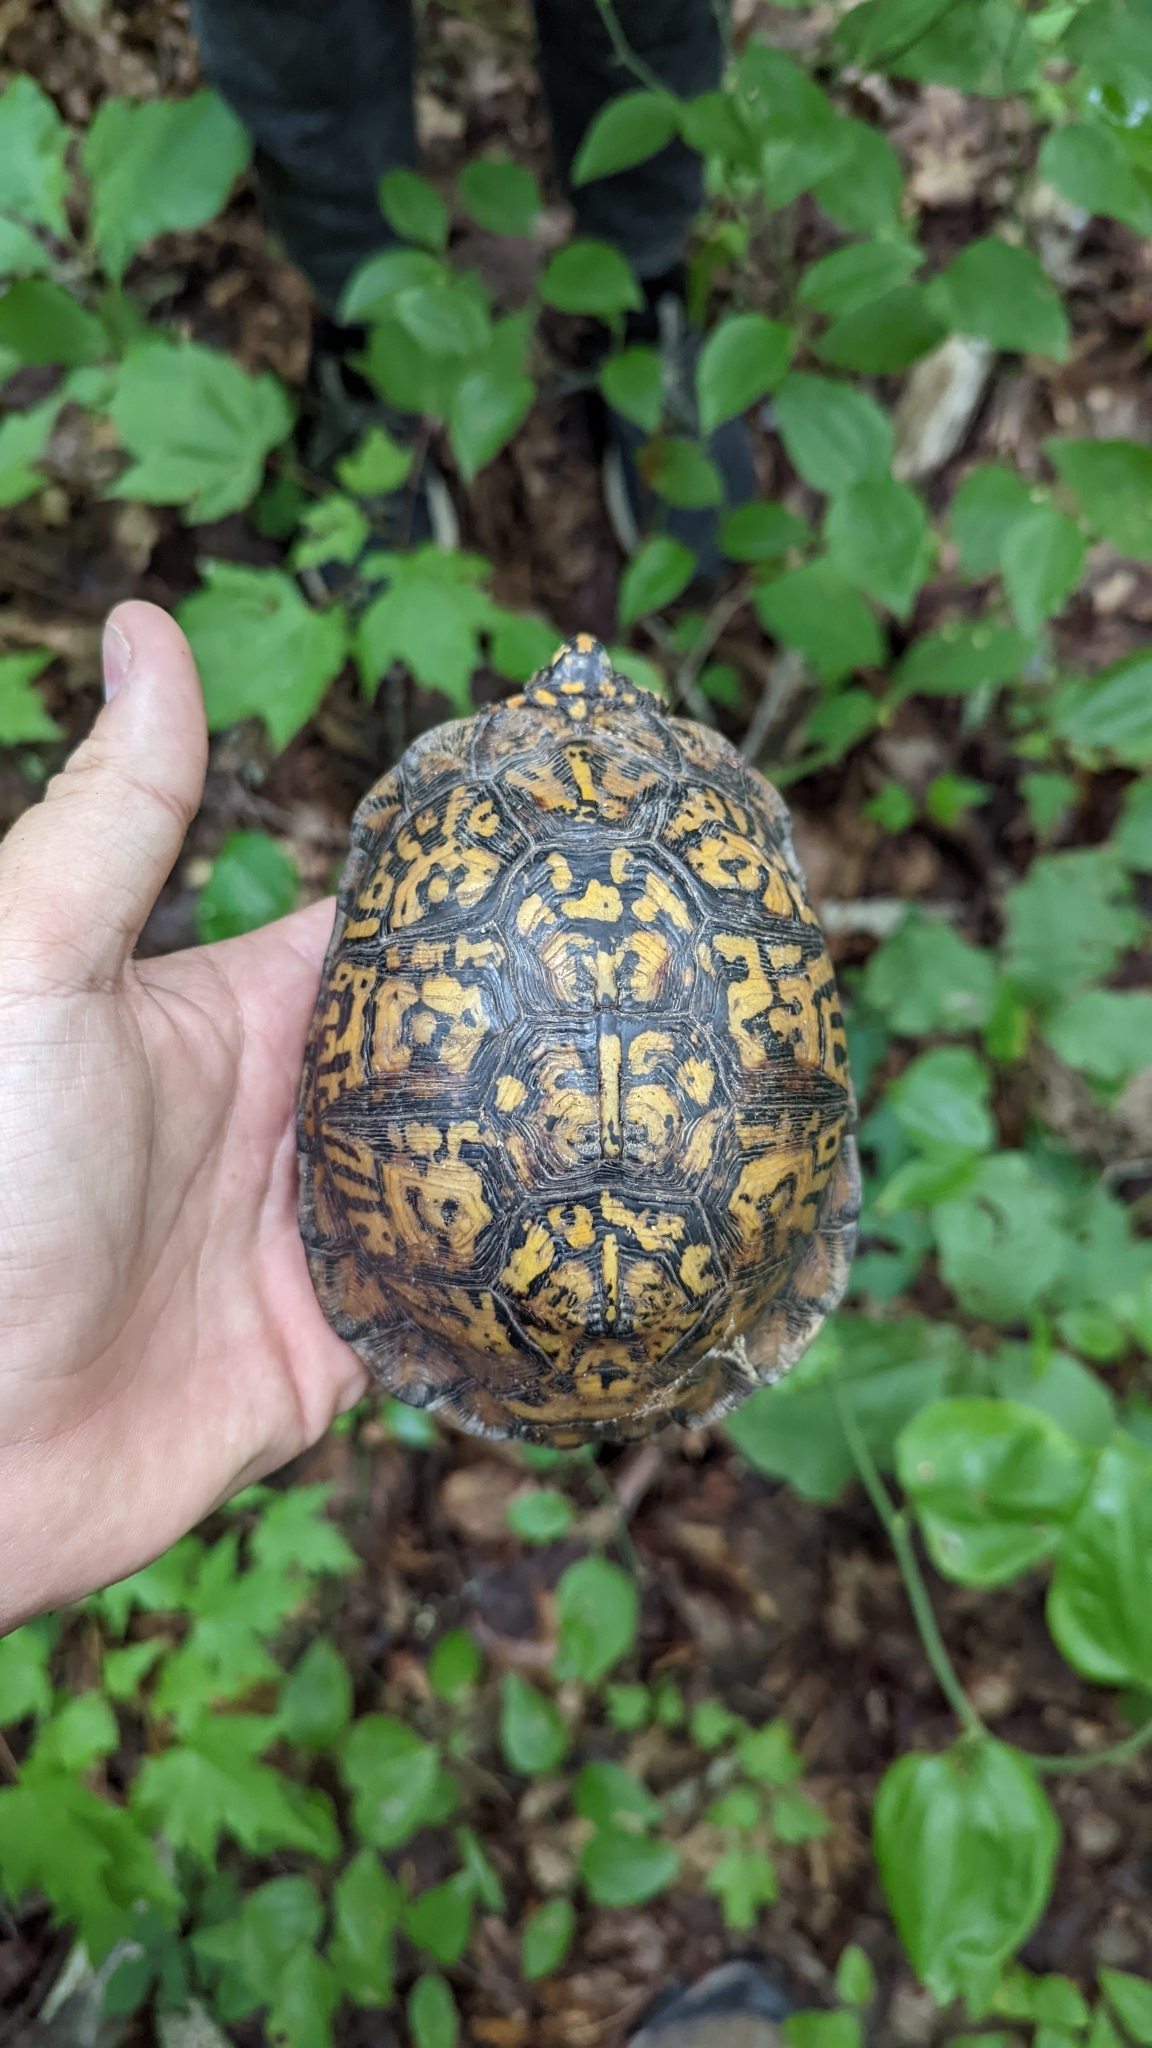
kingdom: Animalia
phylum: Chordata
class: Testudines
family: Emydidae
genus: Terrapene
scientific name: Terrapene carolina
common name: Common box turtle
